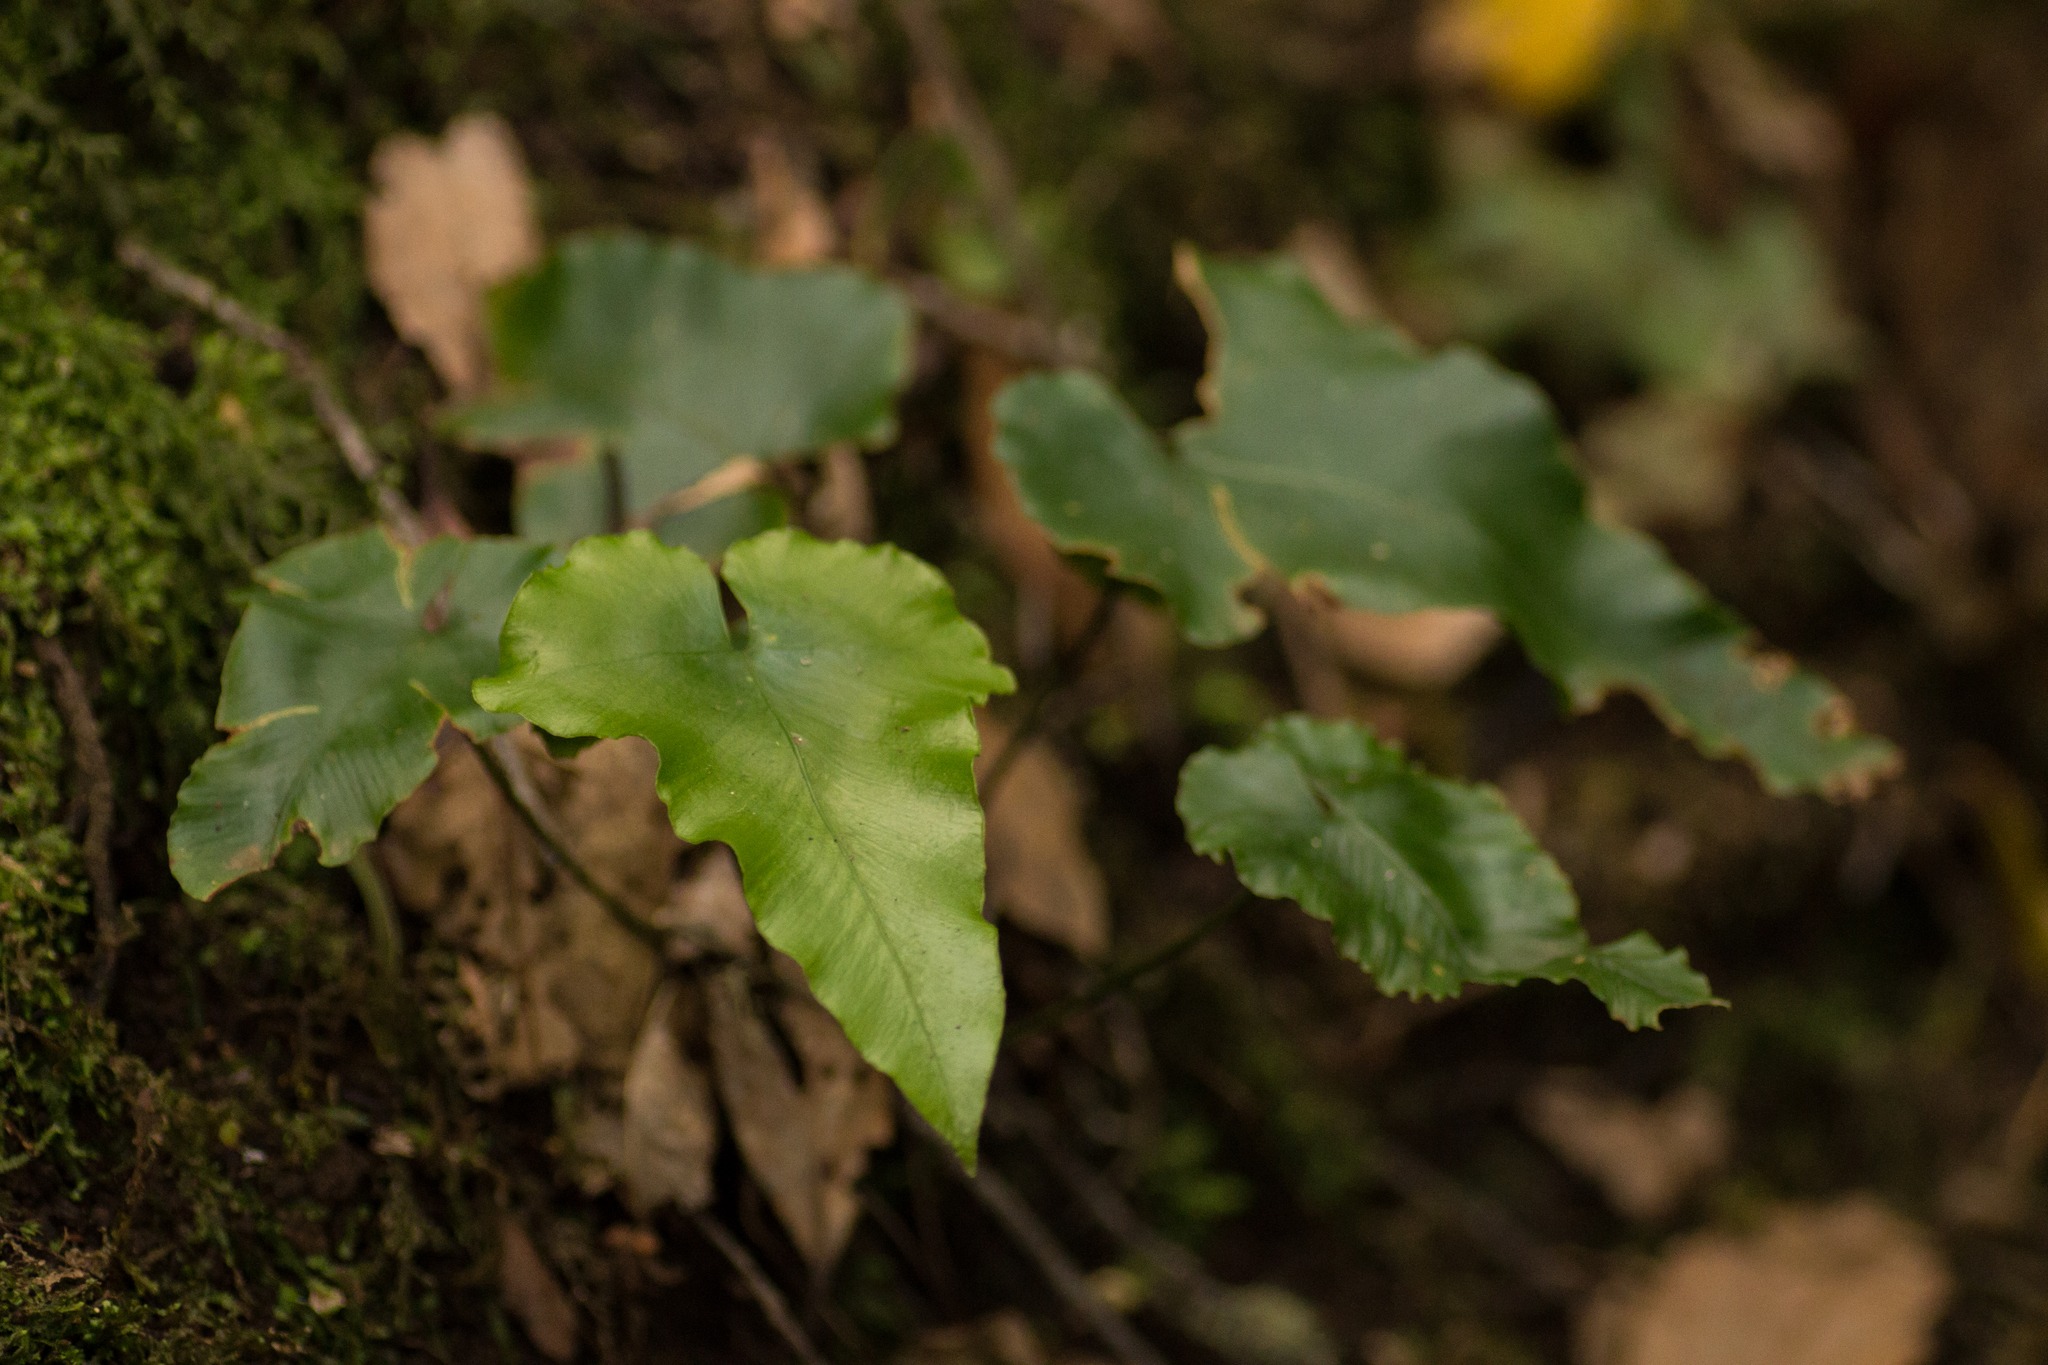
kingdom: Plantae
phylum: Tracheophyta
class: Polypodiopsida
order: Polypodiales
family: Aspleniaceae
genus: Asplenium
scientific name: Asplenium hemionitis
